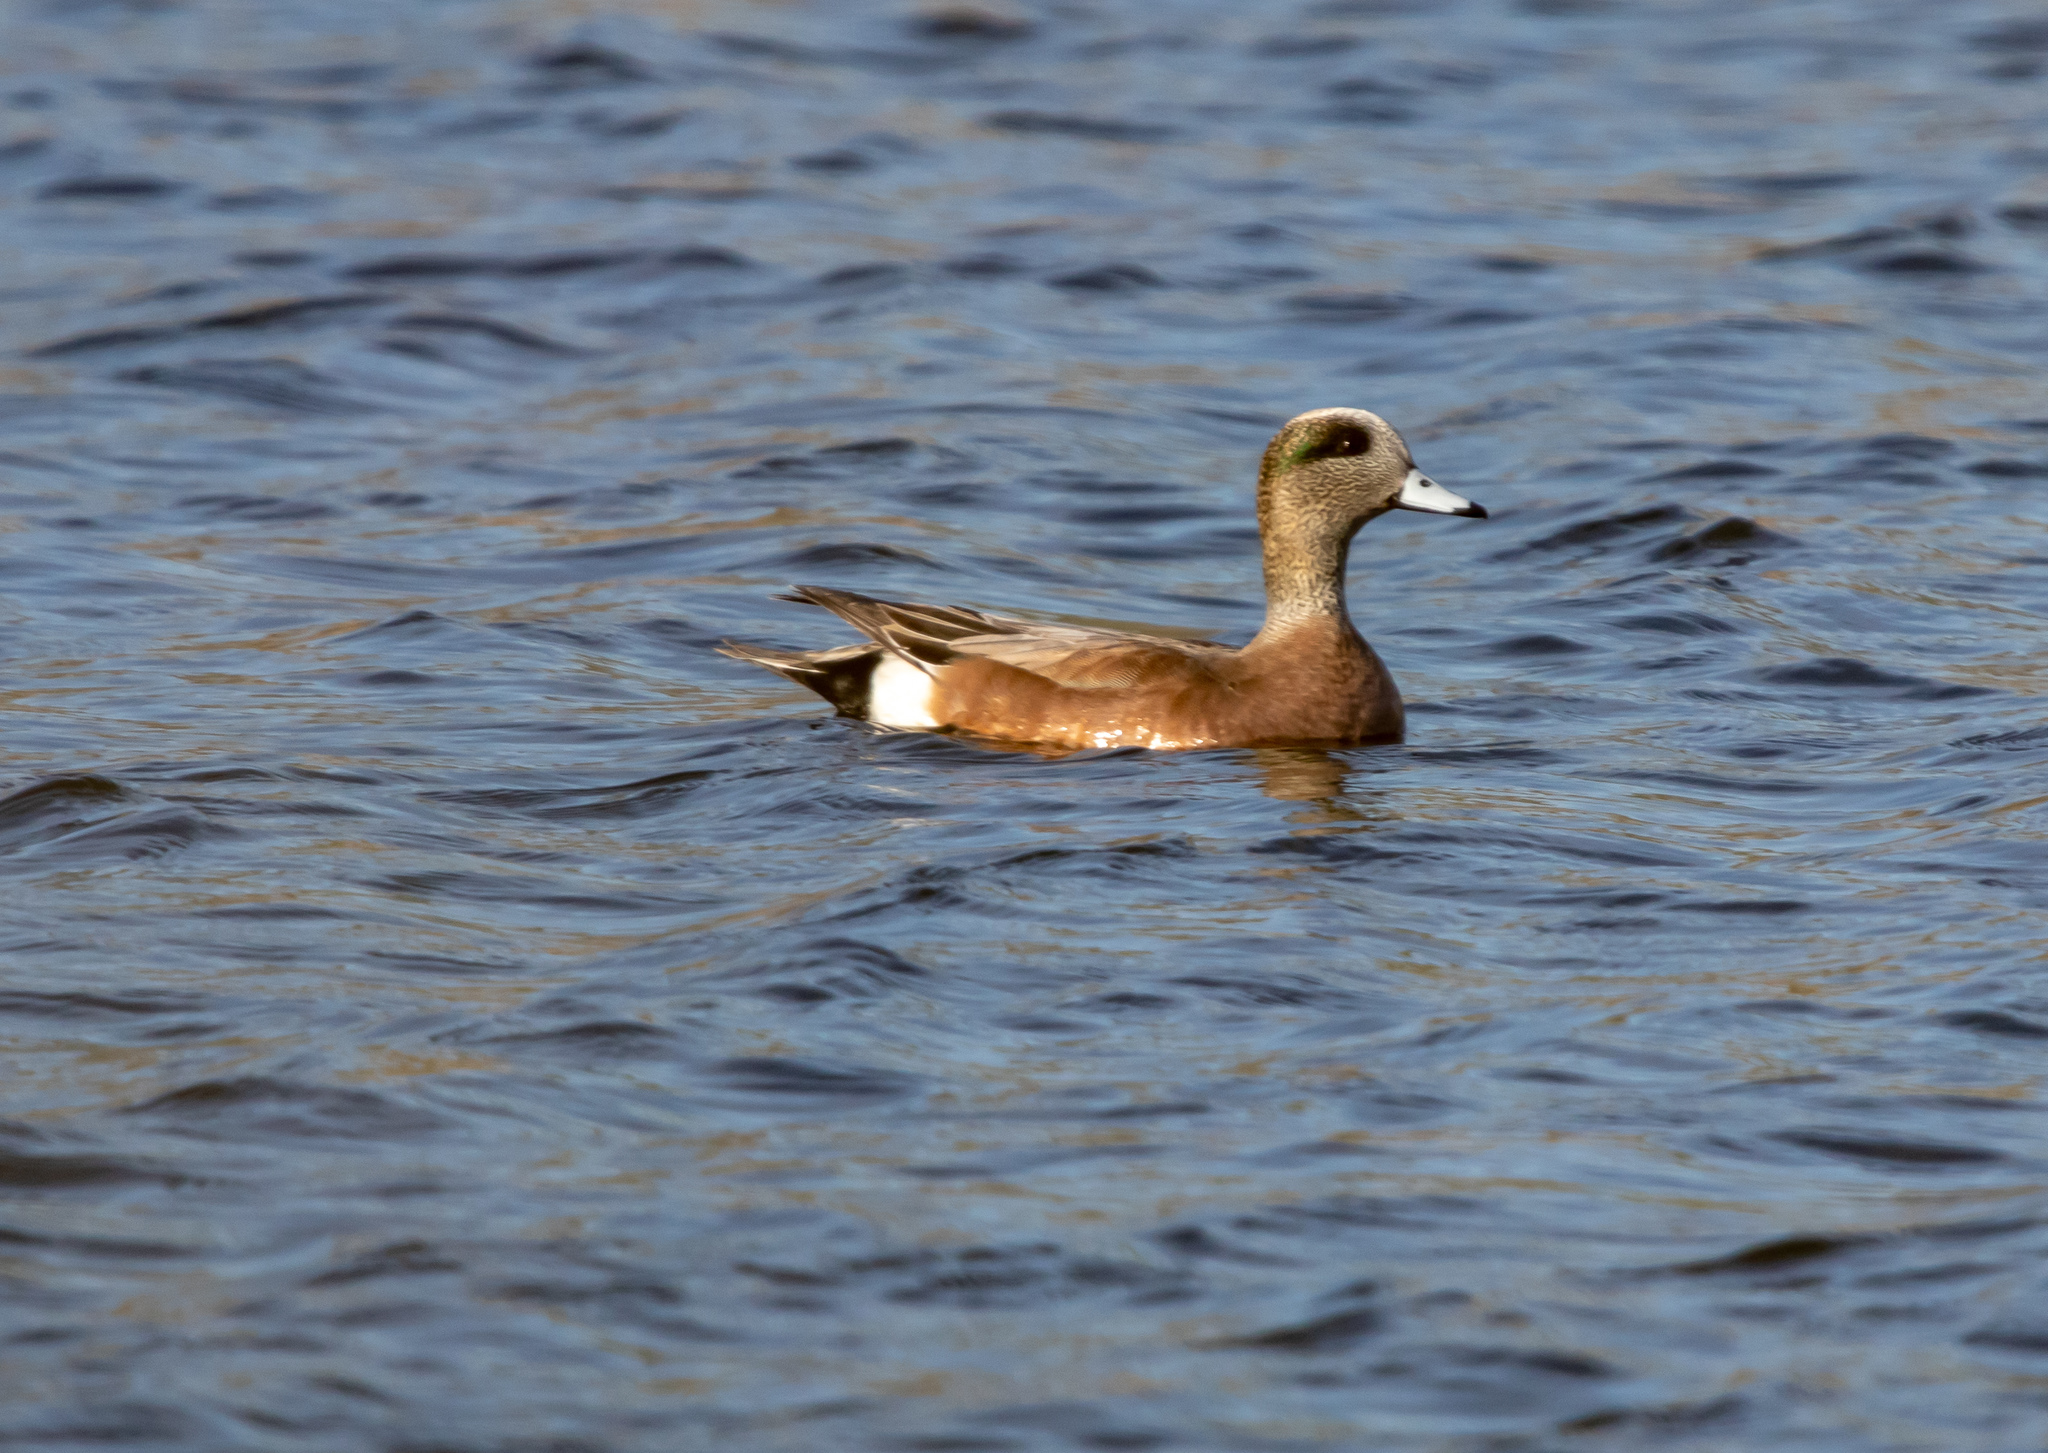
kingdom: Animalia
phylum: Chordata
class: Aves
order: Anseriformes
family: Anatidae
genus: Mareca
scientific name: Mareca americana
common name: American wigeon
